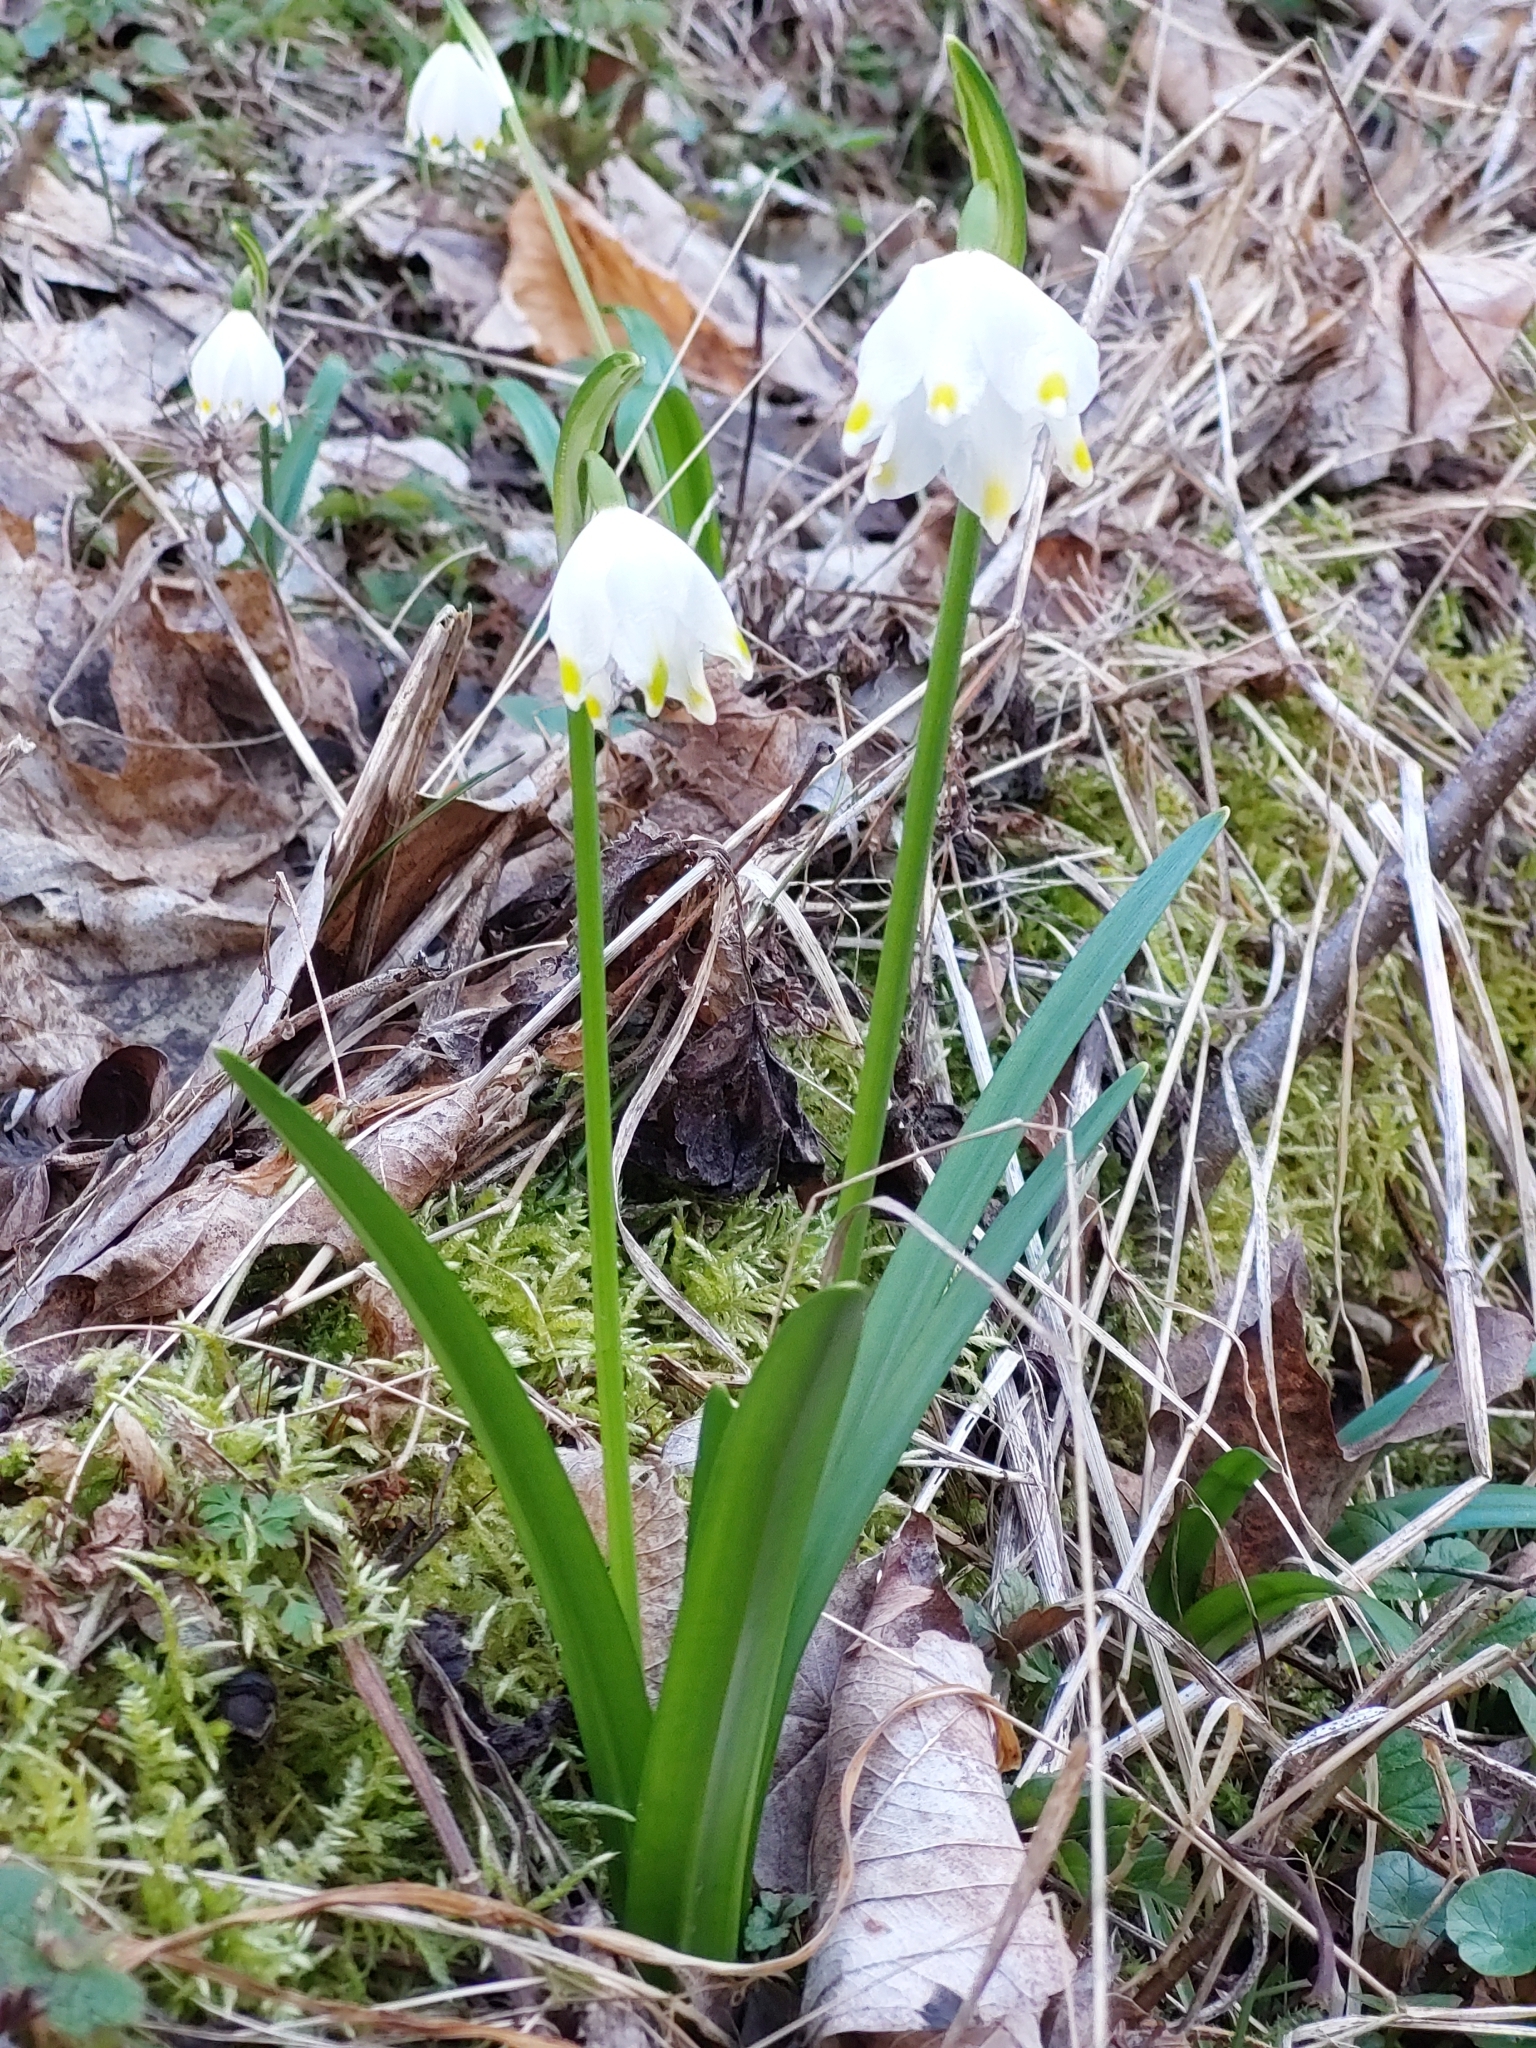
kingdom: Plantae
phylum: Tracheophyta
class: Liliopsida
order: Asparagales
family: Amaryllidaceae
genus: Leucojum
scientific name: Leucojum vernum
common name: Spring snowflake
